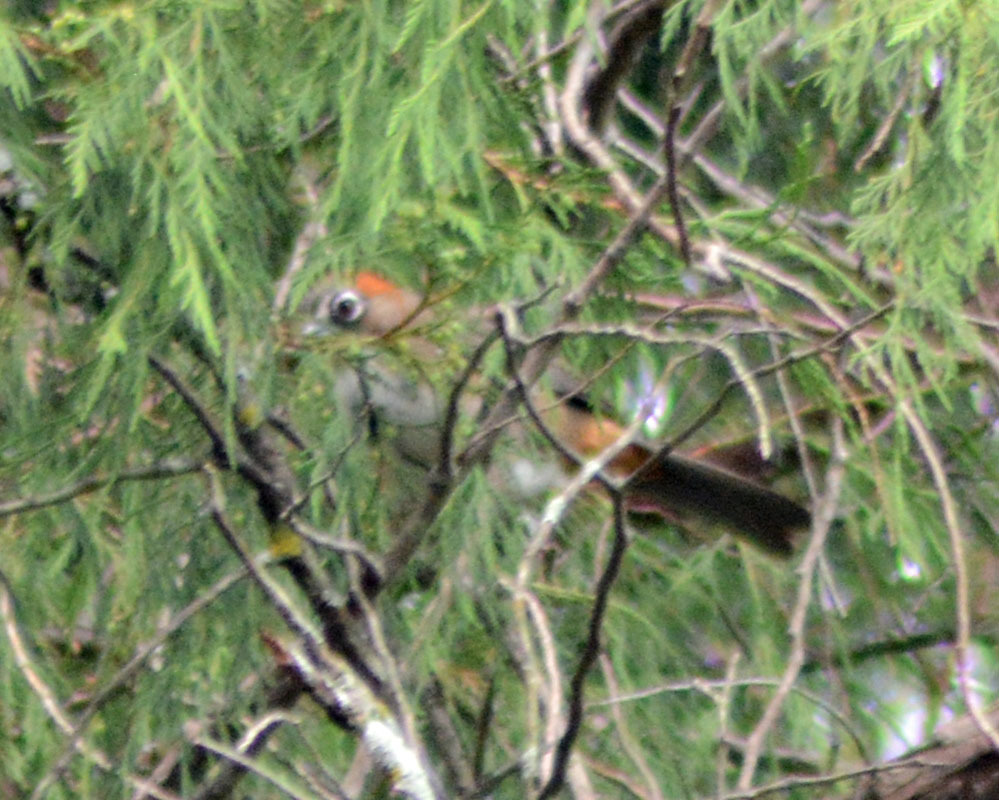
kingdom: Animalia
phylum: Chordata
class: Aves
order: Passeriformes
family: Passerellidae
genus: Melozone
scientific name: Melozone kieneri
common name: Rusty-crowned ground-sparrow
